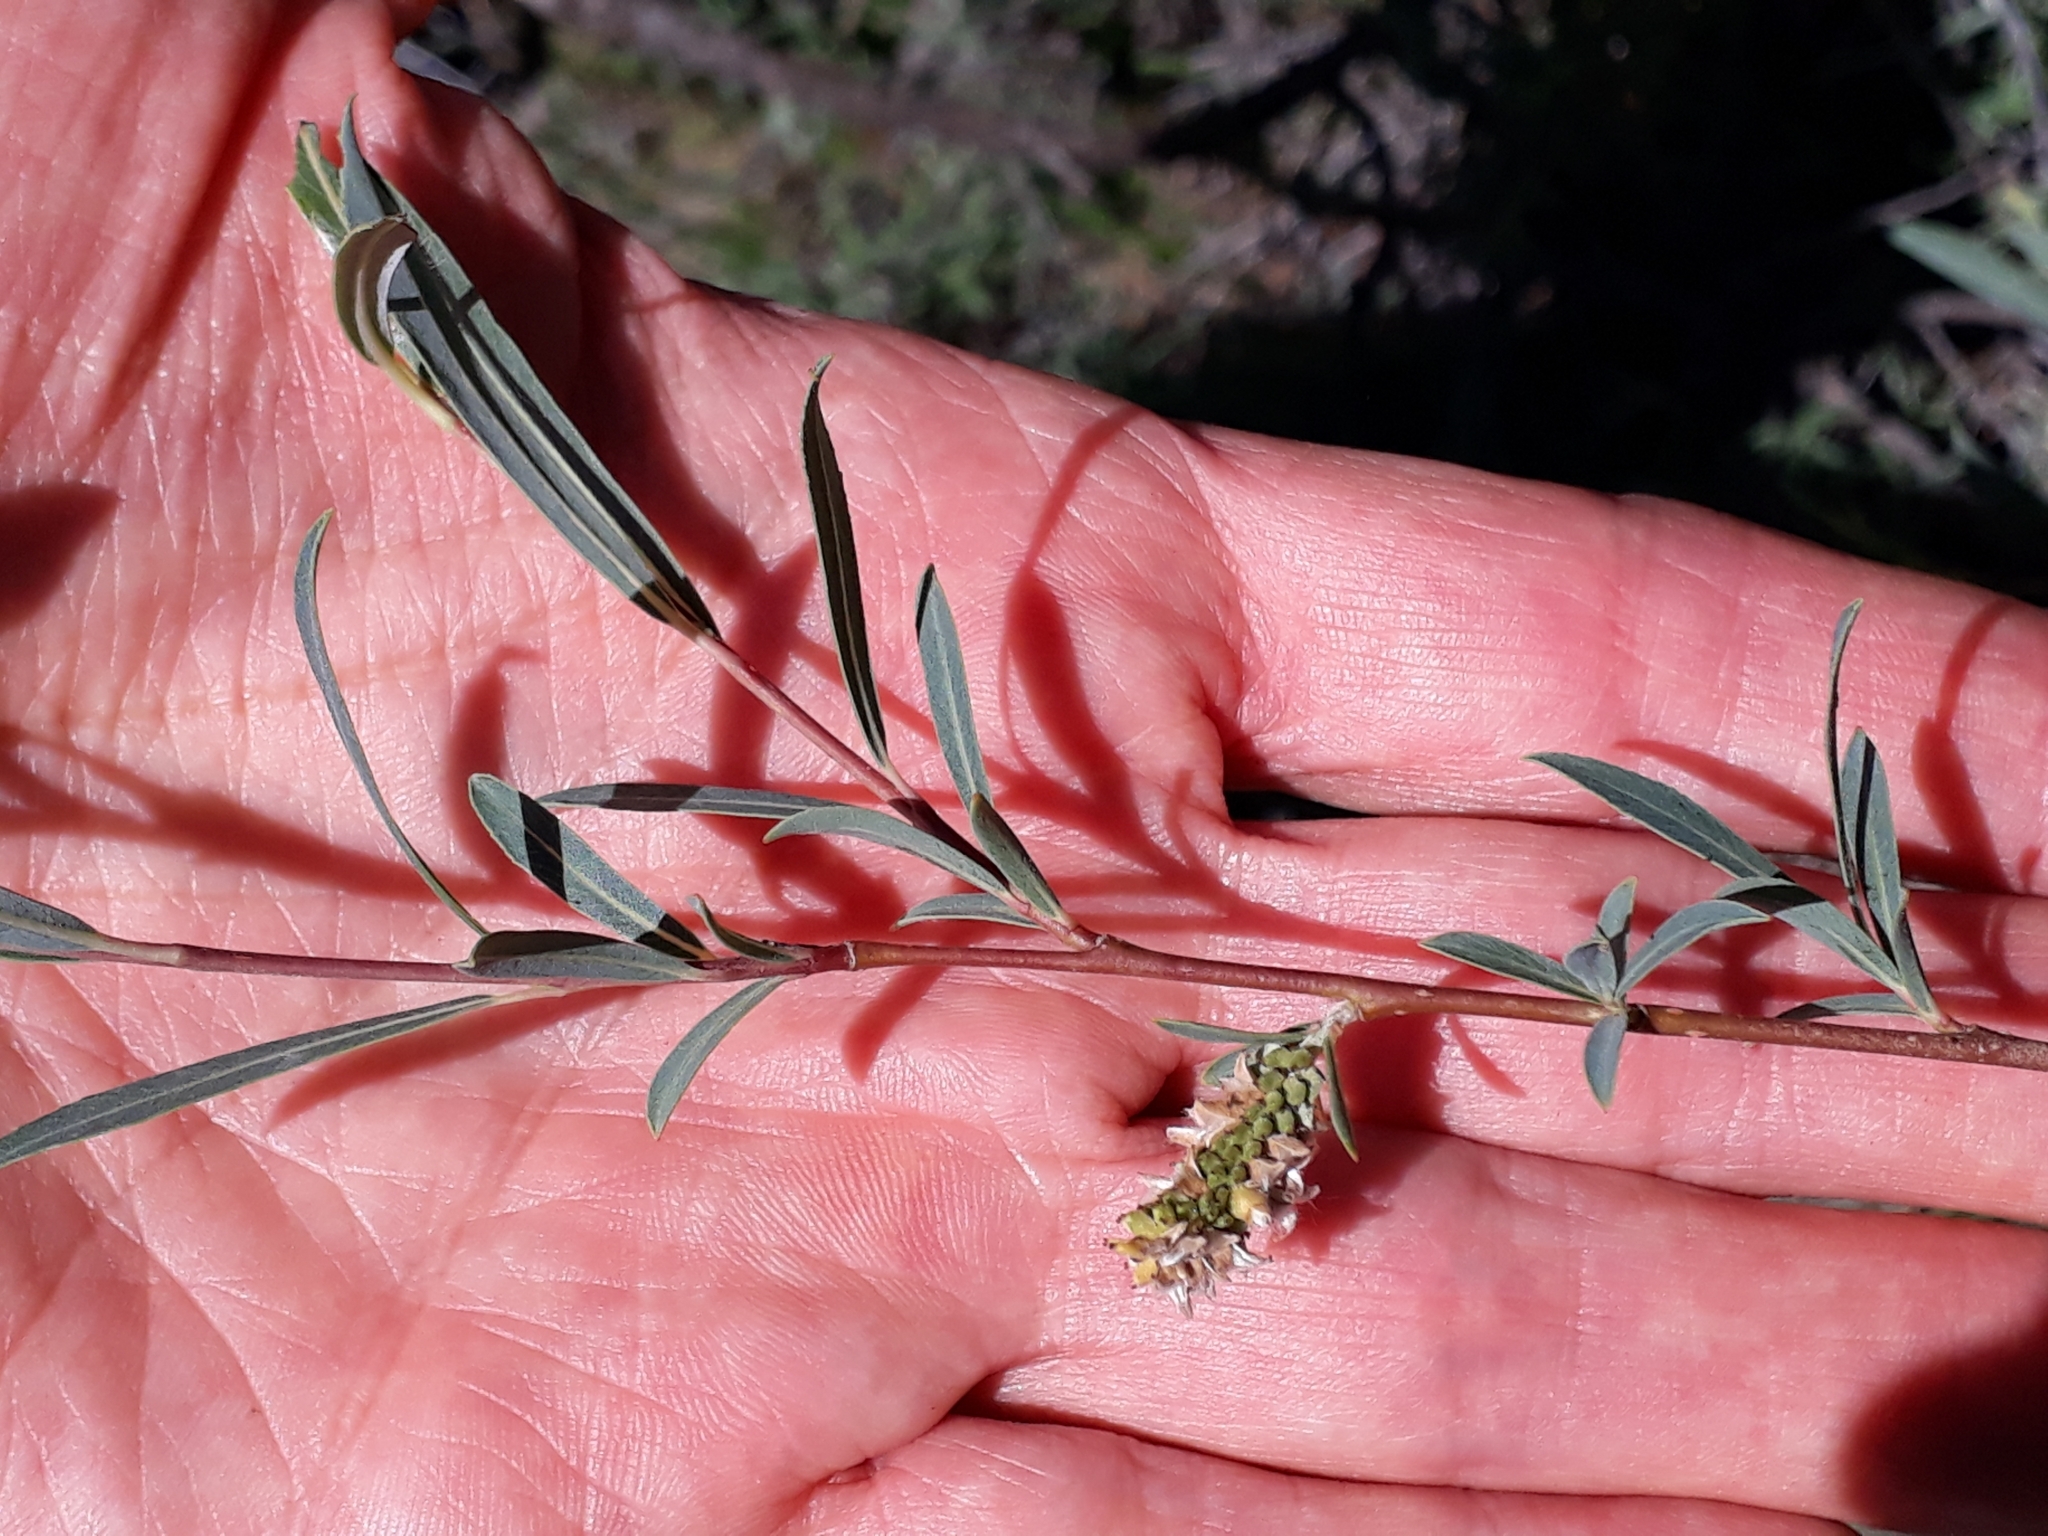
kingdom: Plantae
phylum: Tracheophyta
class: Magnoliopsida
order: Malpighiales
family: Salicaceae
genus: Salix
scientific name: Salix purpurea
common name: Purple willow
